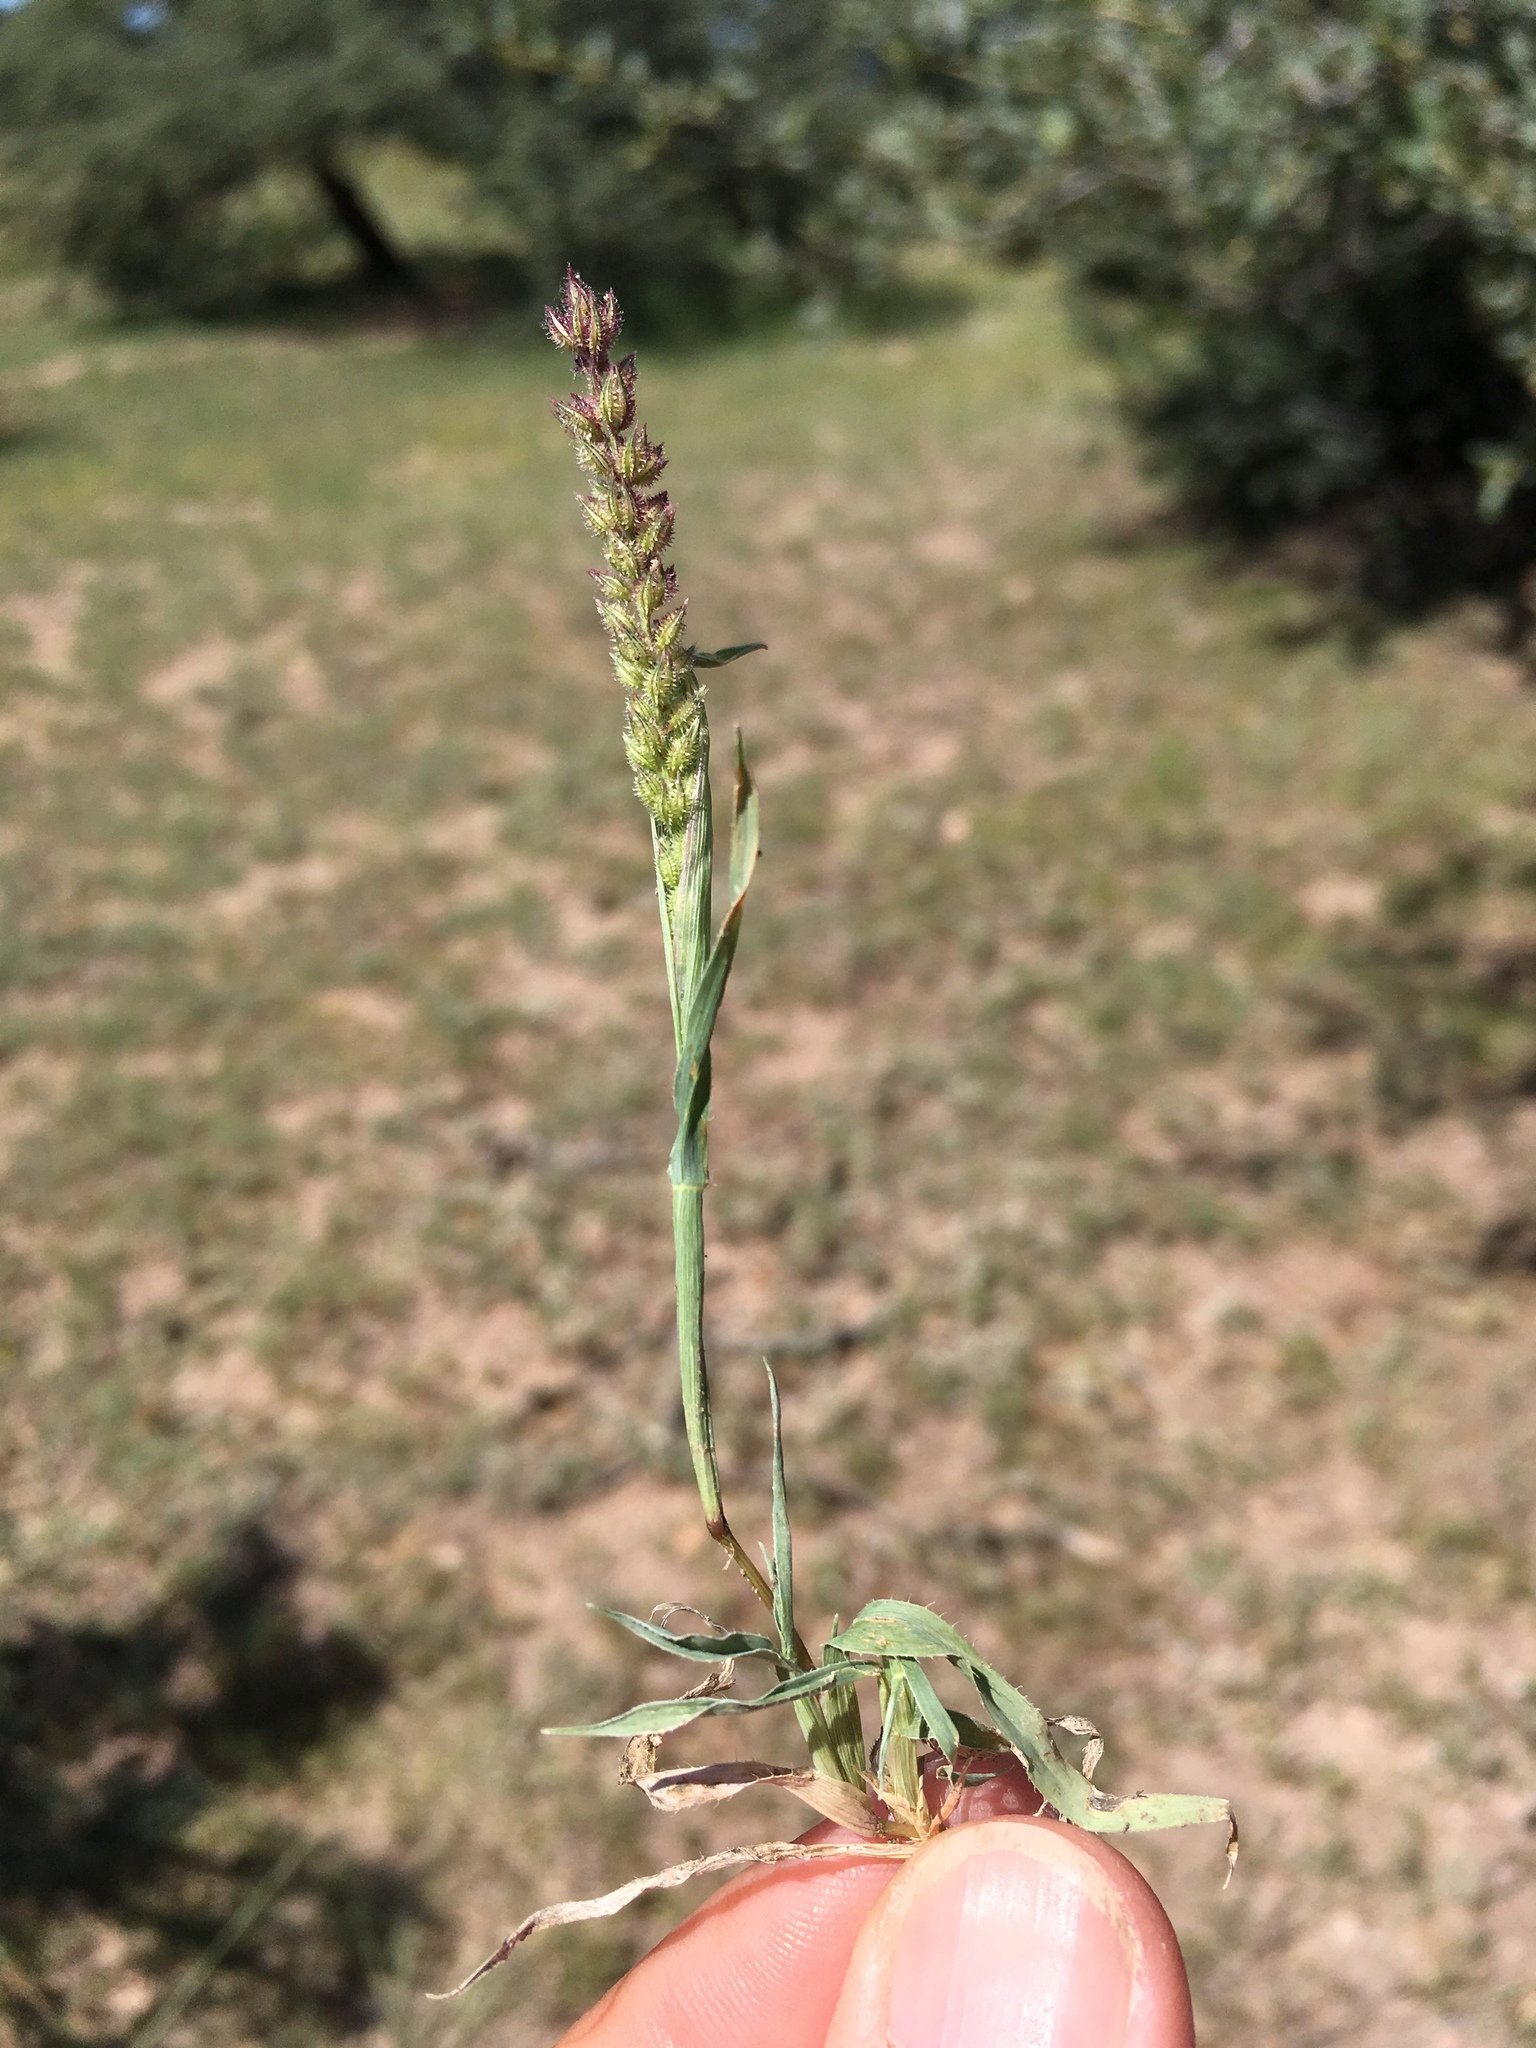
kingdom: Plantae
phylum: Tracheophyta
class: Liliopsida
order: Poales
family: Poaceae
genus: Tragus
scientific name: Tragus berteronianus
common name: African bur-grass
